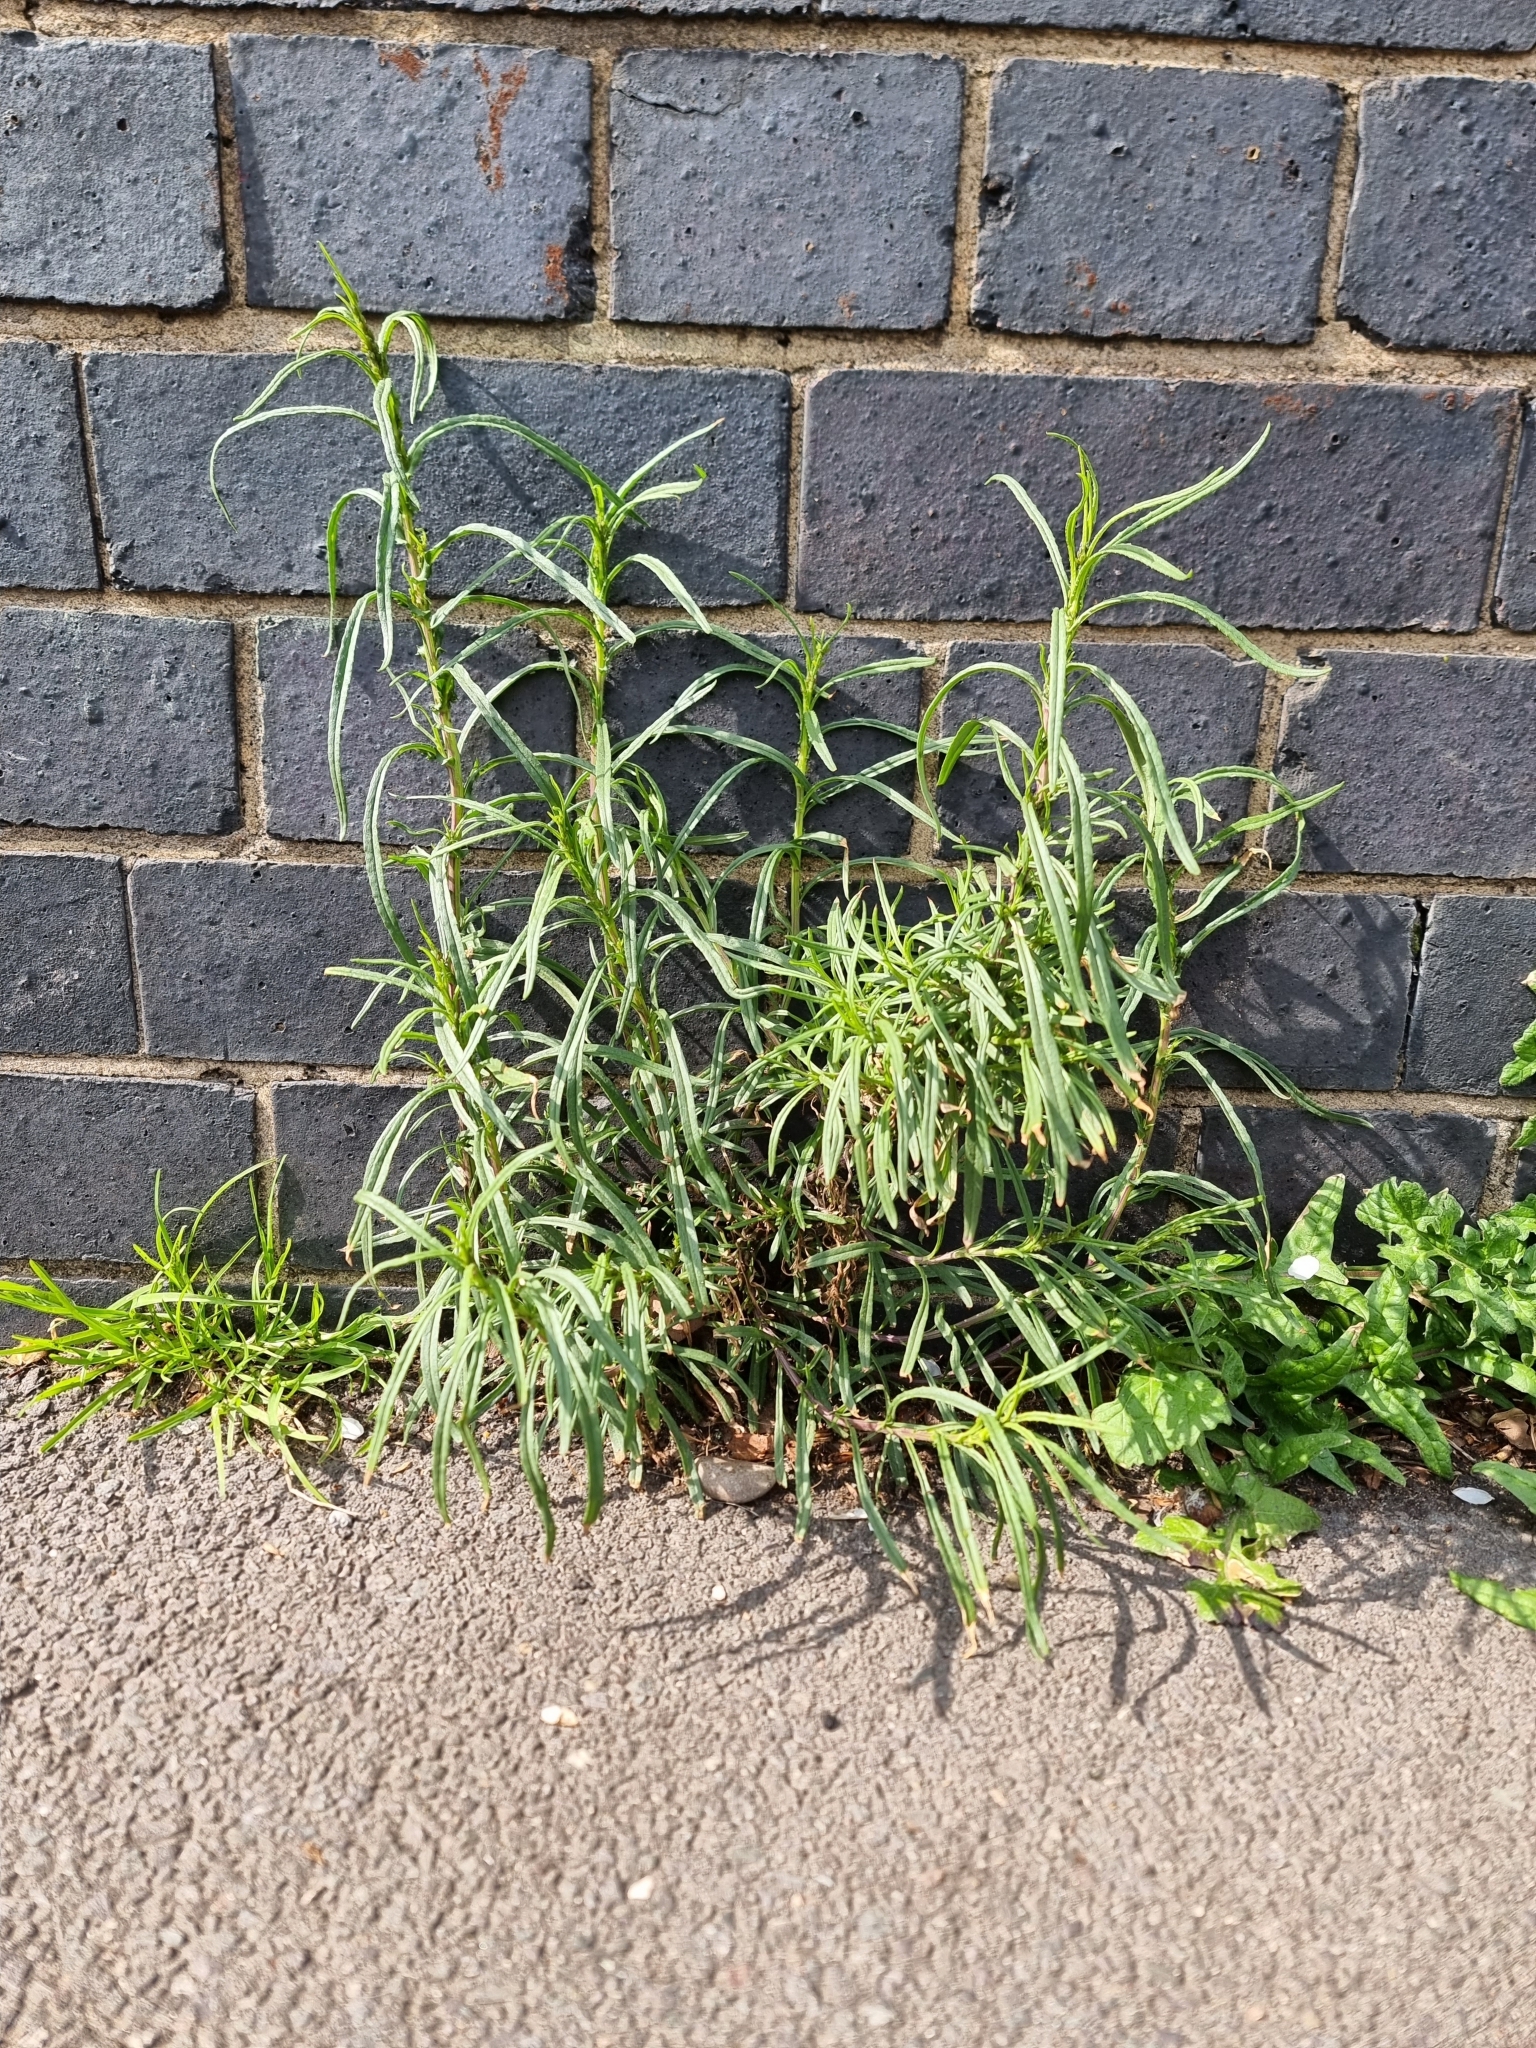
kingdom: Plantae
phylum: Tracheophyta
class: Magnoliopsida
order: Asterales
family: Asteraceae
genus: Senecio
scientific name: Senecio inaequidens
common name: Narrow-leaved ragwort
